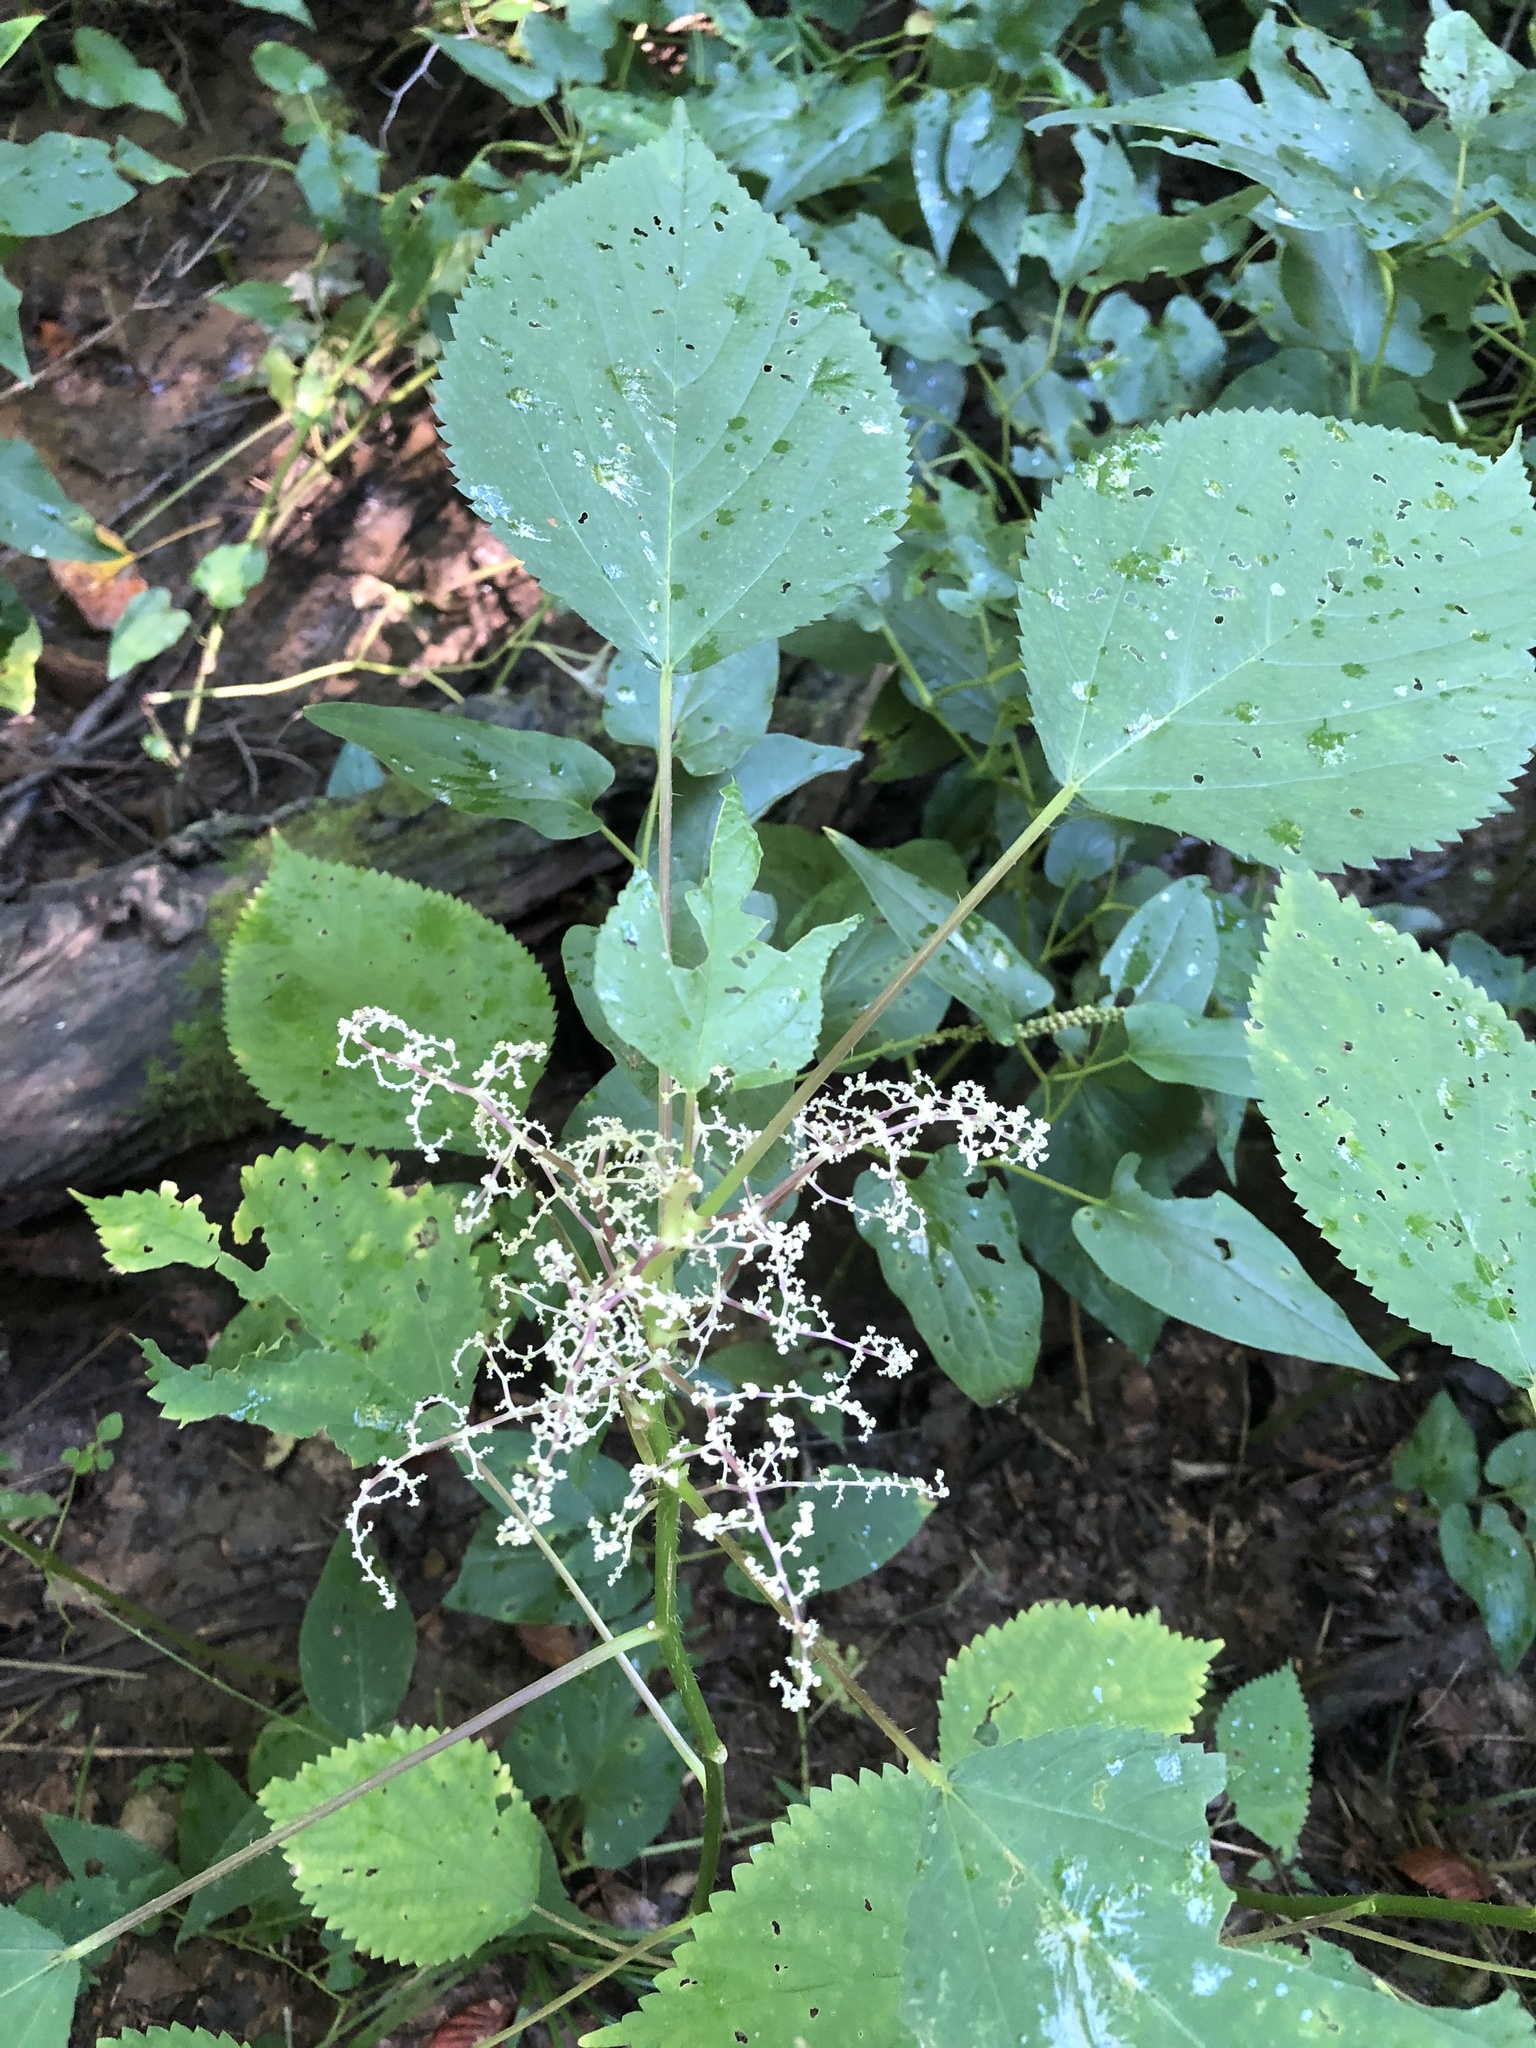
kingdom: Plantae
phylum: Tracheophyta
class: Magnoliopsida
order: Rosales
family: Urticaceae
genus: Laportea
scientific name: Laportea canadensis
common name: Canada nettle
